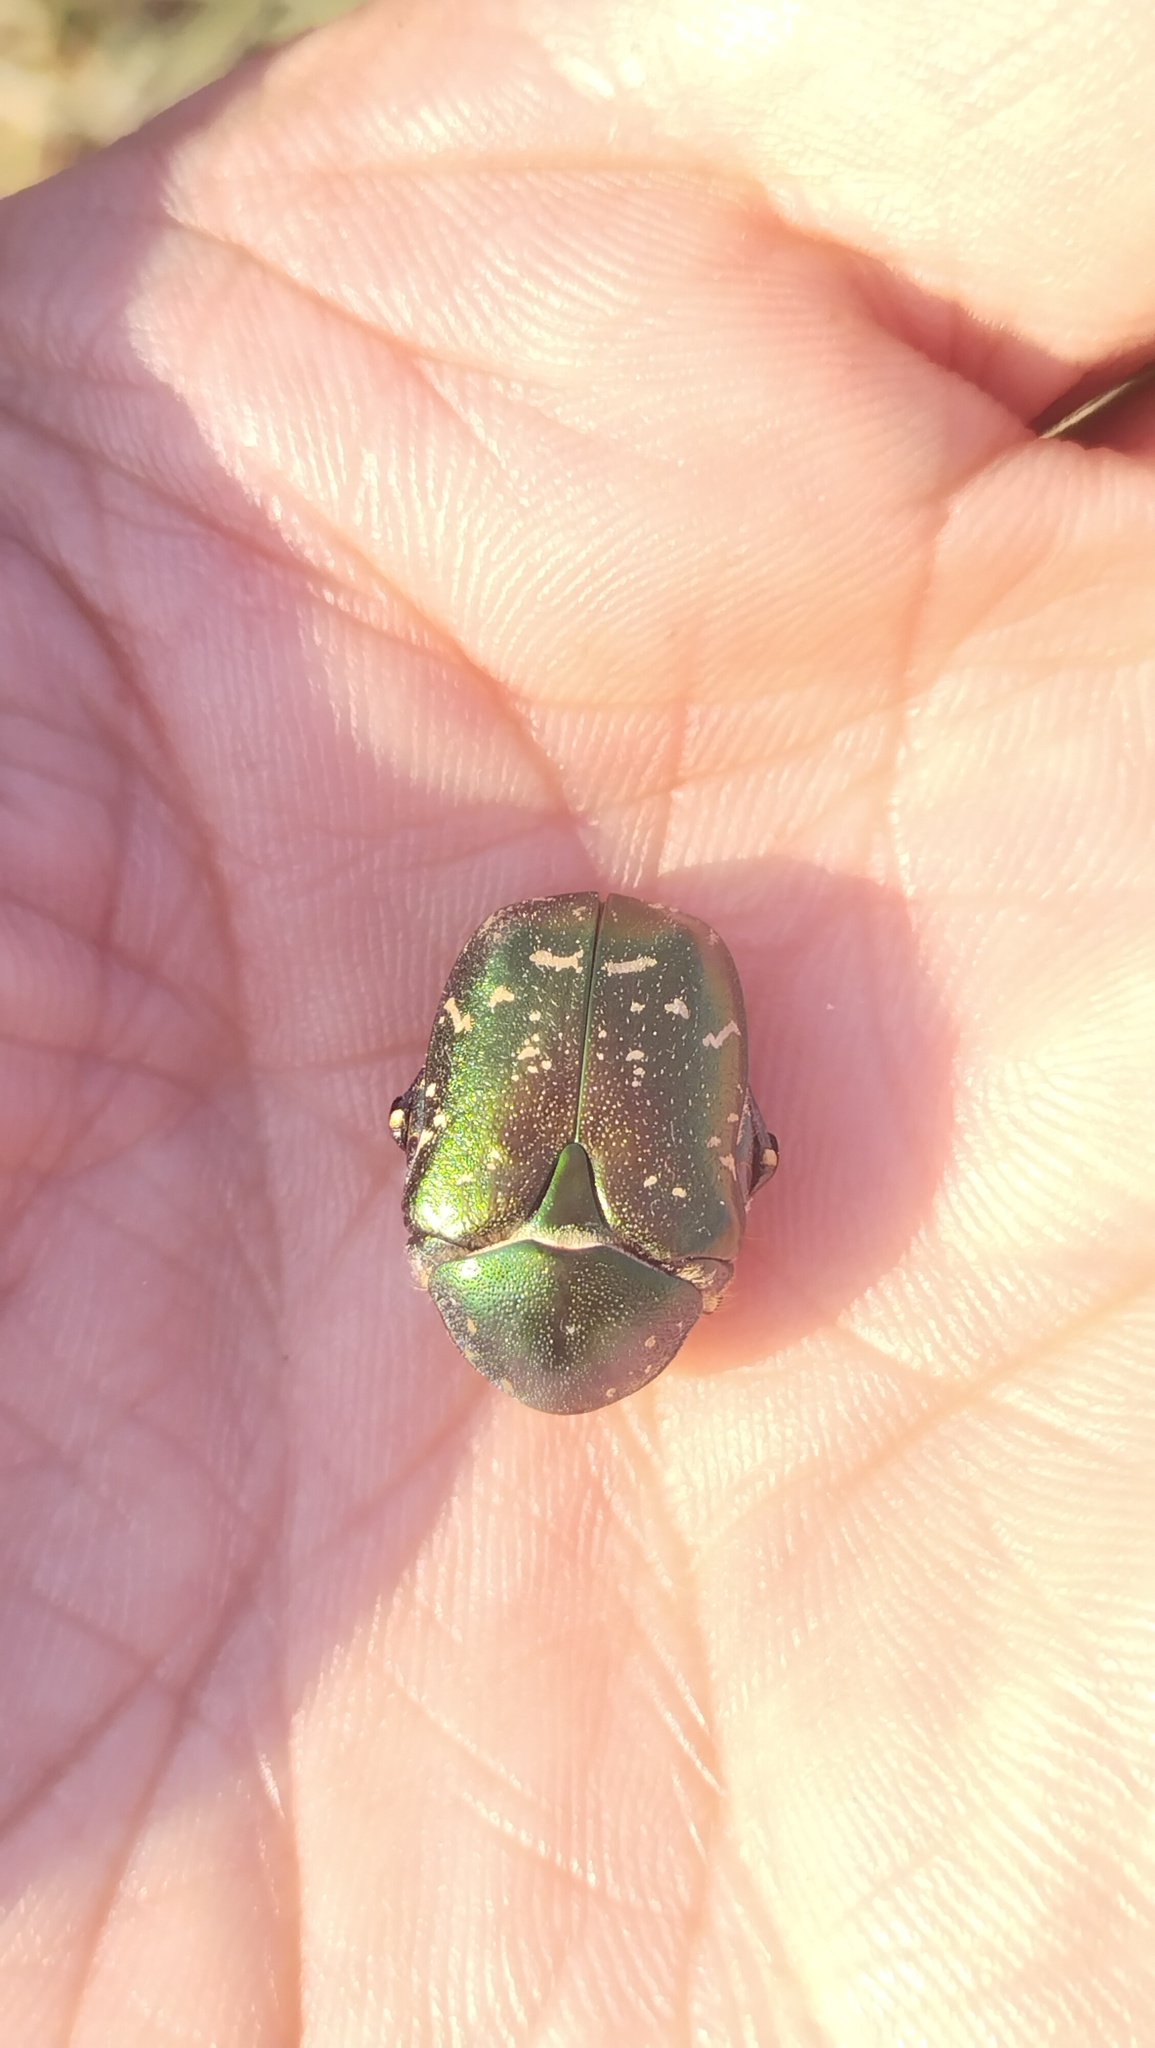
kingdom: Animalia
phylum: Arthropoda
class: Insecta
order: Coleoptera
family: Scarabaeidae
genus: Protaetia
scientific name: Protaetia cuprea
